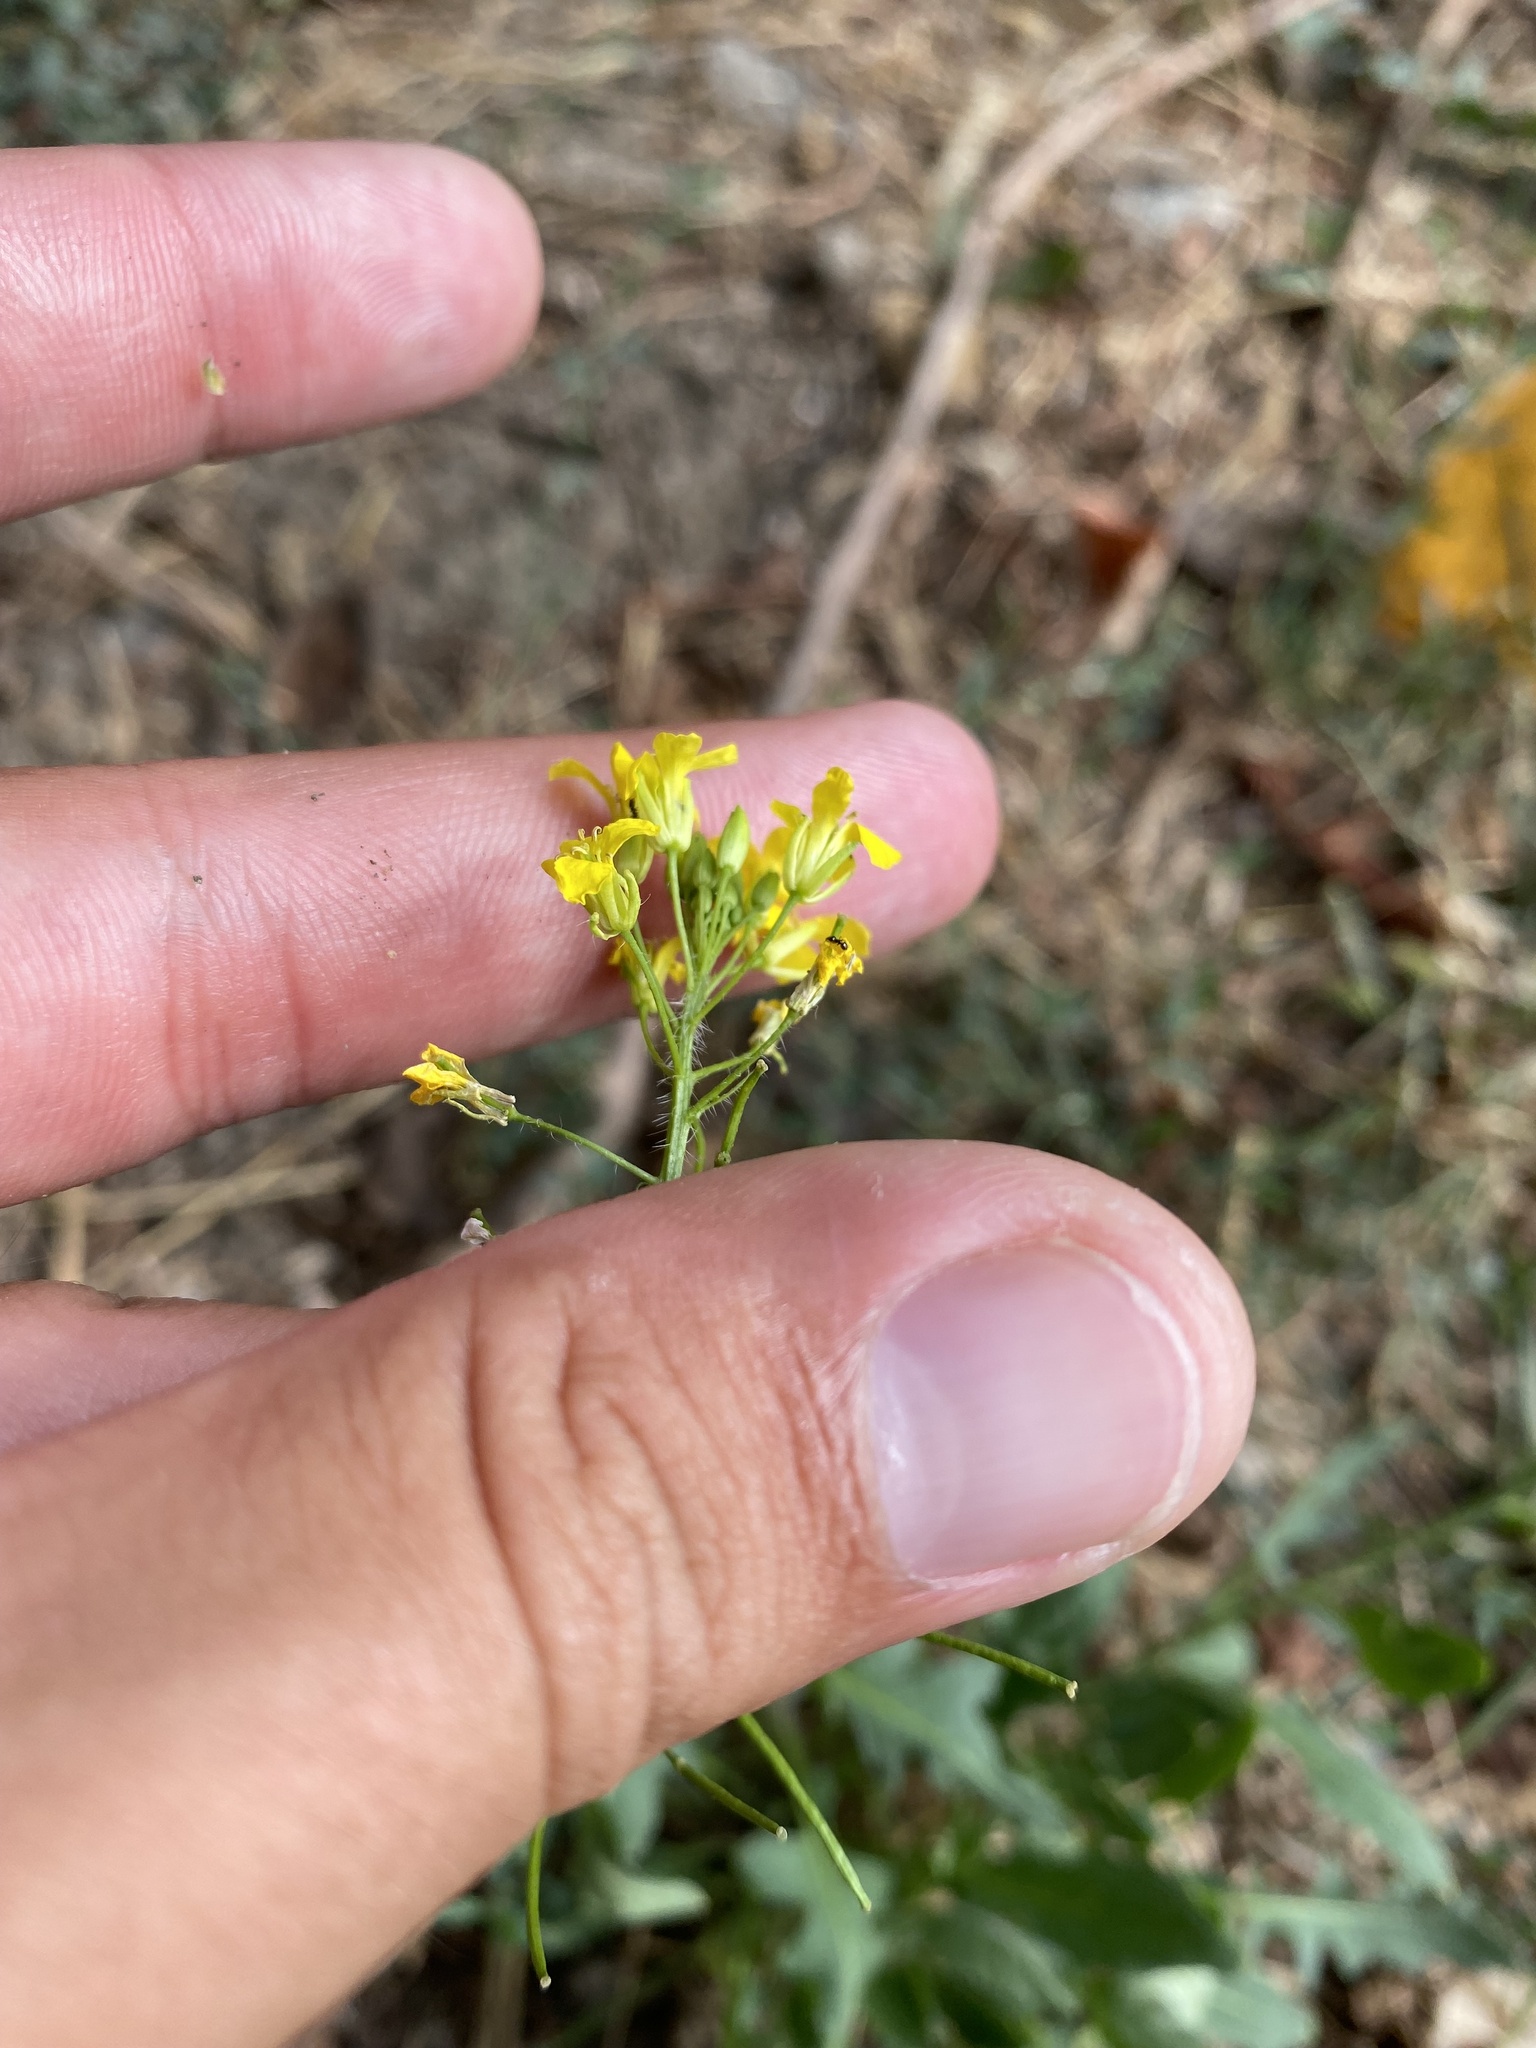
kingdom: Plantae
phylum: Tracheophyta
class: Magnoliopsida
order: Brassicales
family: Brassicaceae
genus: Sisymbrium
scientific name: Sisymbrium loeselii
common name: False london-rocket
